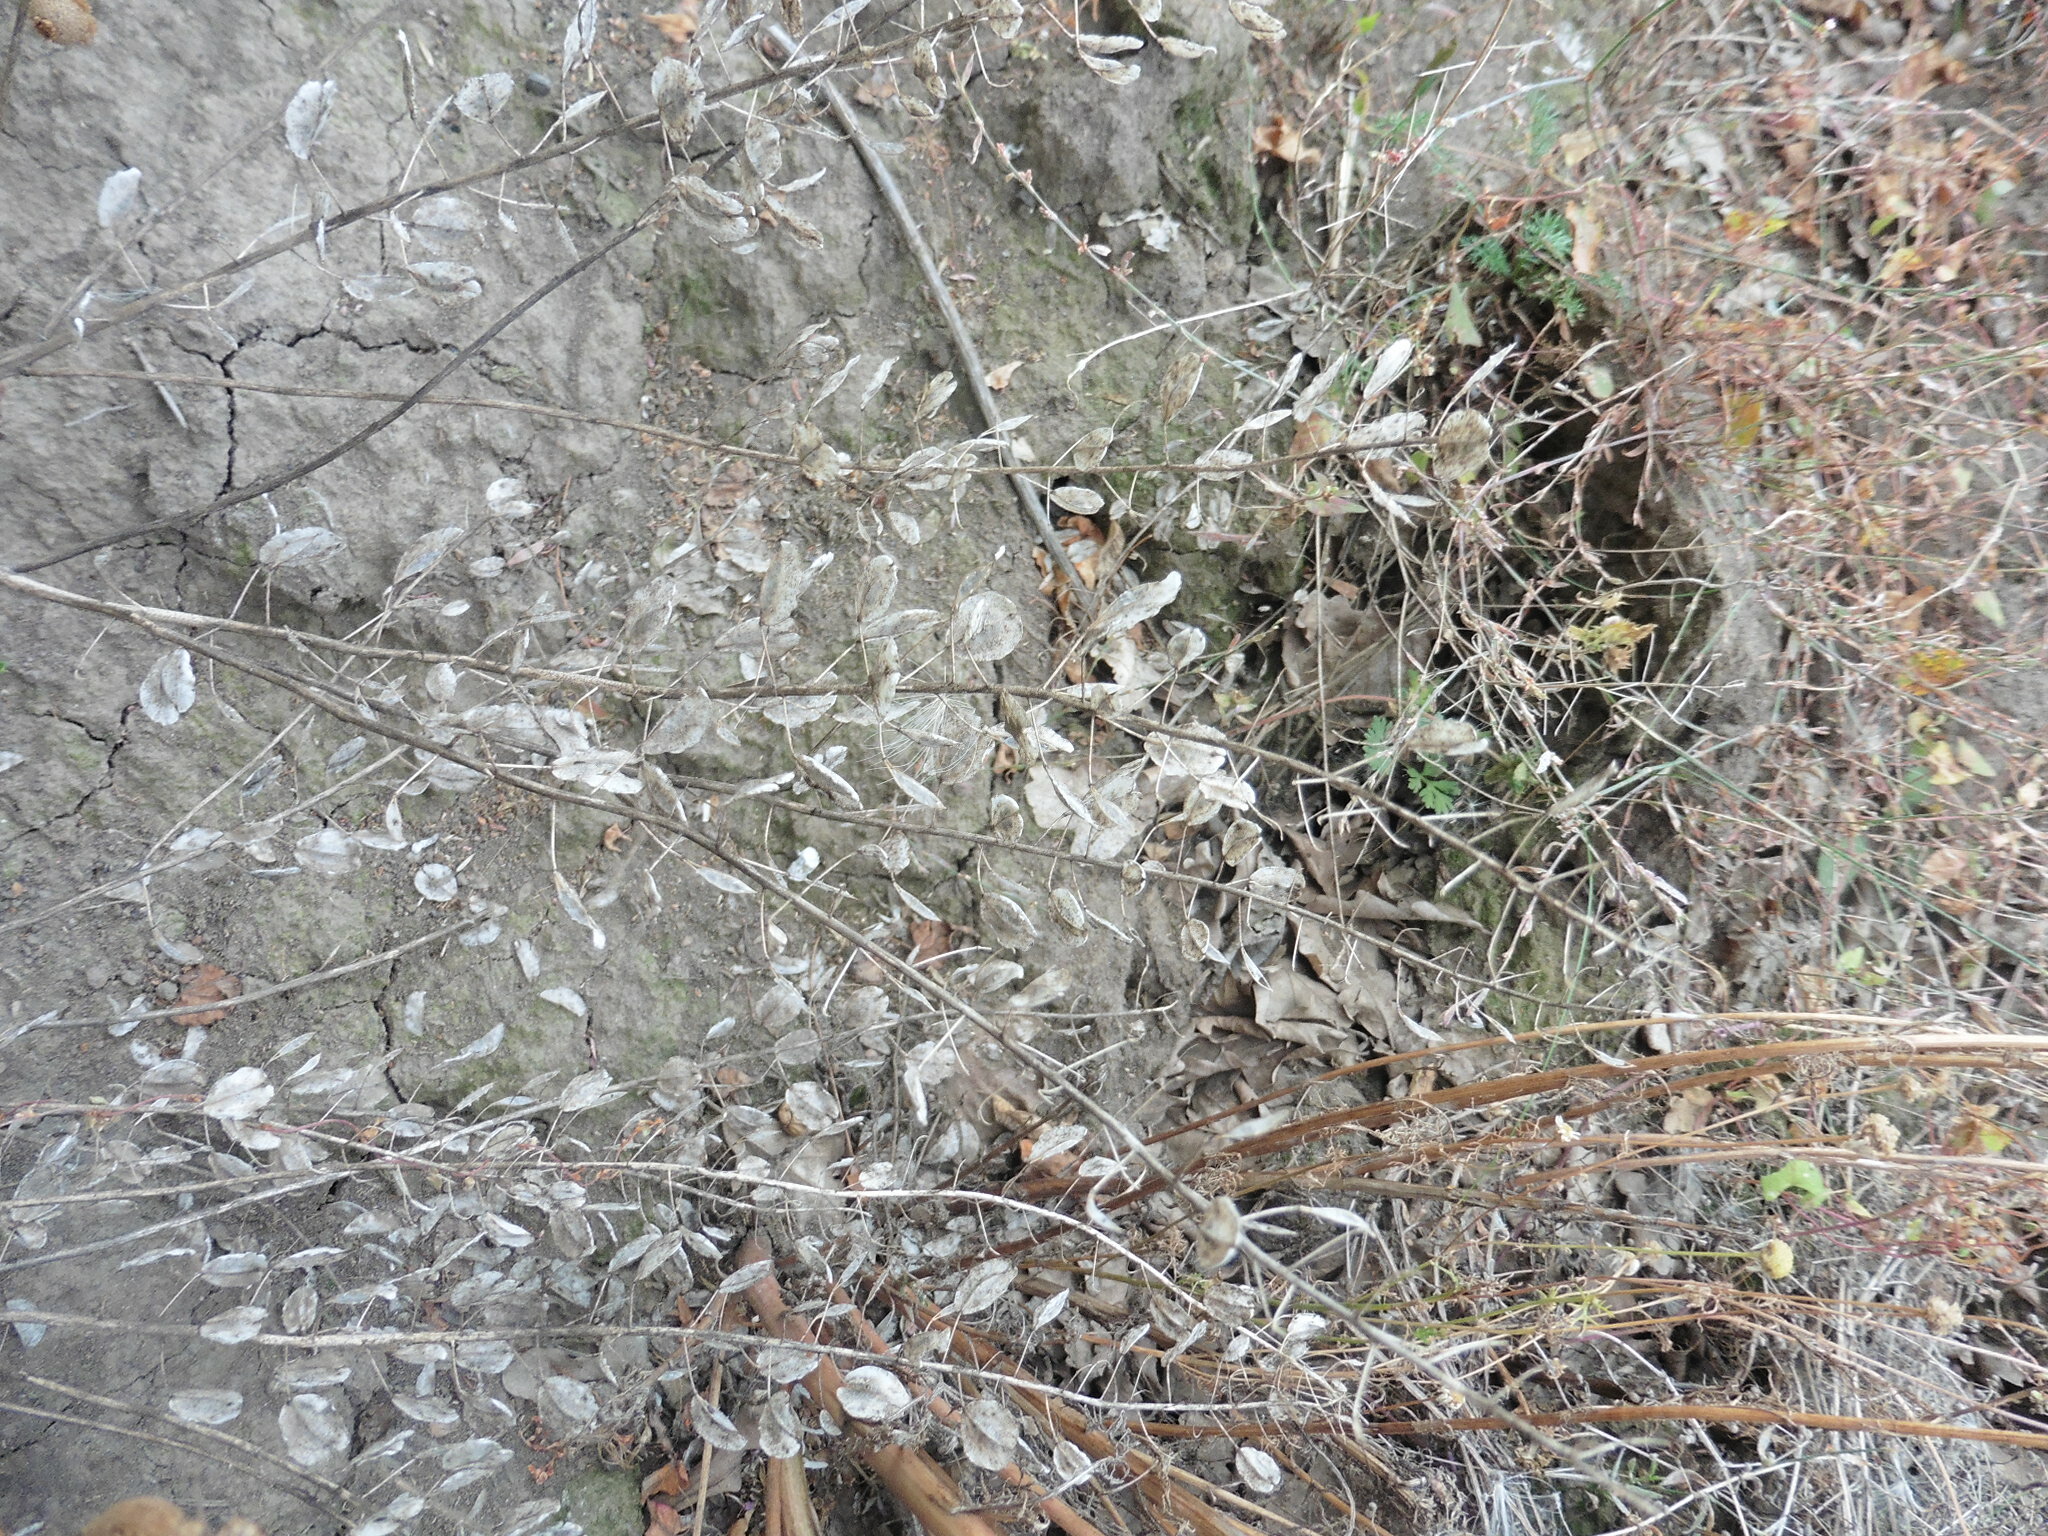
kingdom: Plantae
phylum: Tracheophyta
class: Magnoliopsida
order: Brassicales
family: Brassicaceae
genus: Thlaspi
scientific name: Thlaspi arvense
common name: Field pennycress
